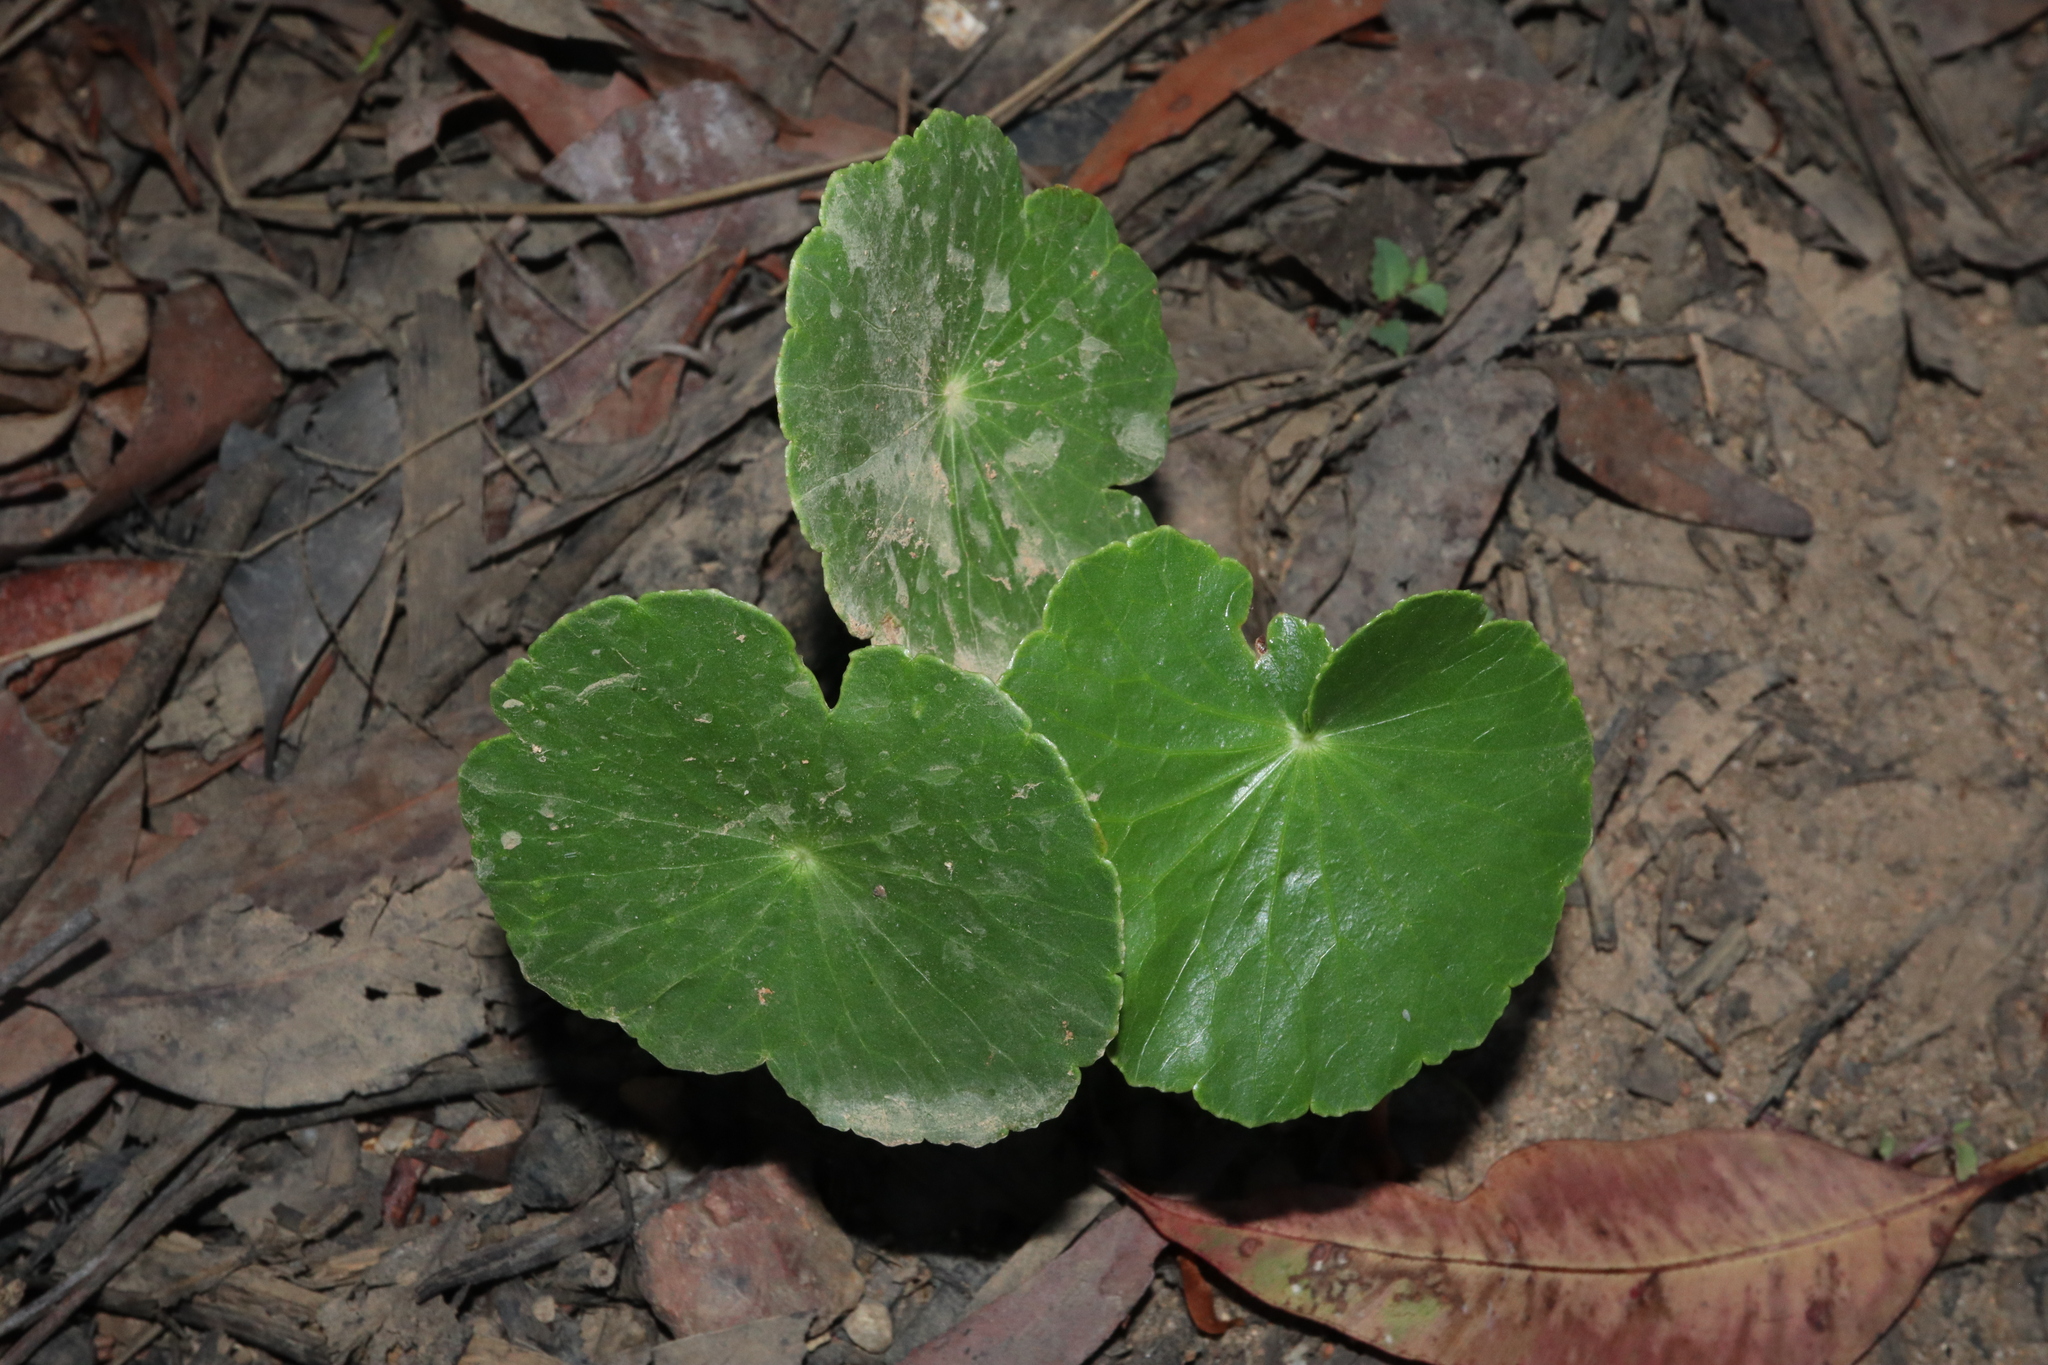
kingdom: Plantae
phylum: Tracheophyta
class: Magnoliopsida
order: Apiales
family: Araliaceae
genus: Hydrocotyle
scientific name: Hydrocotyle bonariensis
